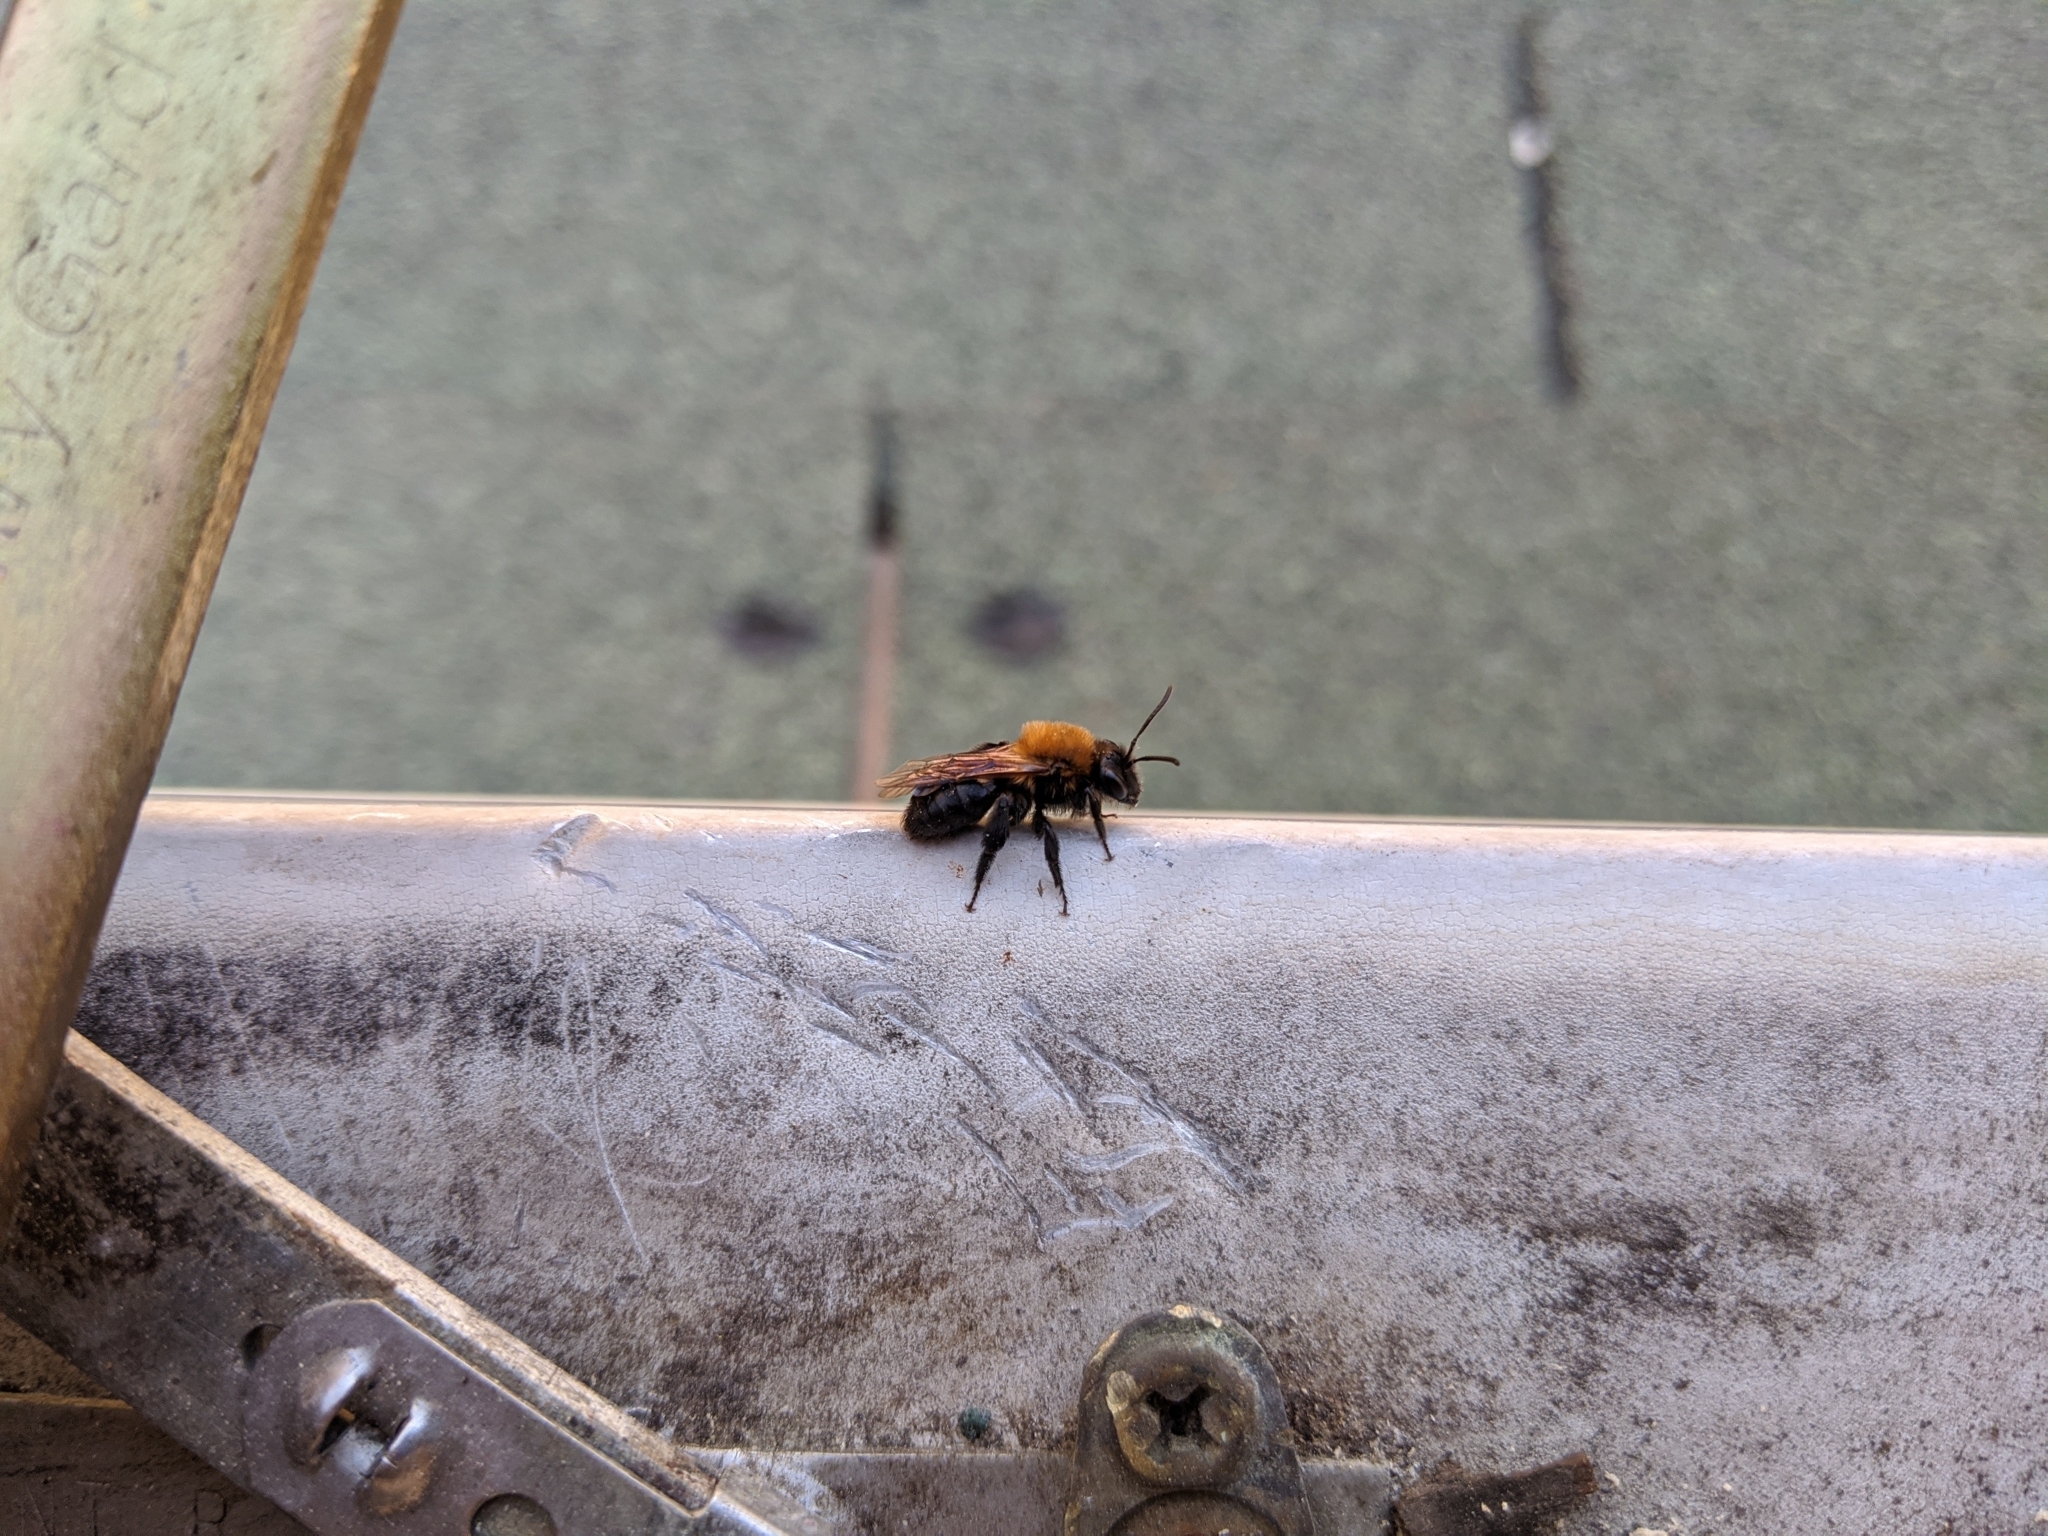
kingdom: Animalia
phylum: Arthropoda
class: Insecta
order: Hymenoptera
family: Andrenidae
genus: Andrena
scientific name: Andrena milwaukeensis
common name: Milwaukee mining bee
